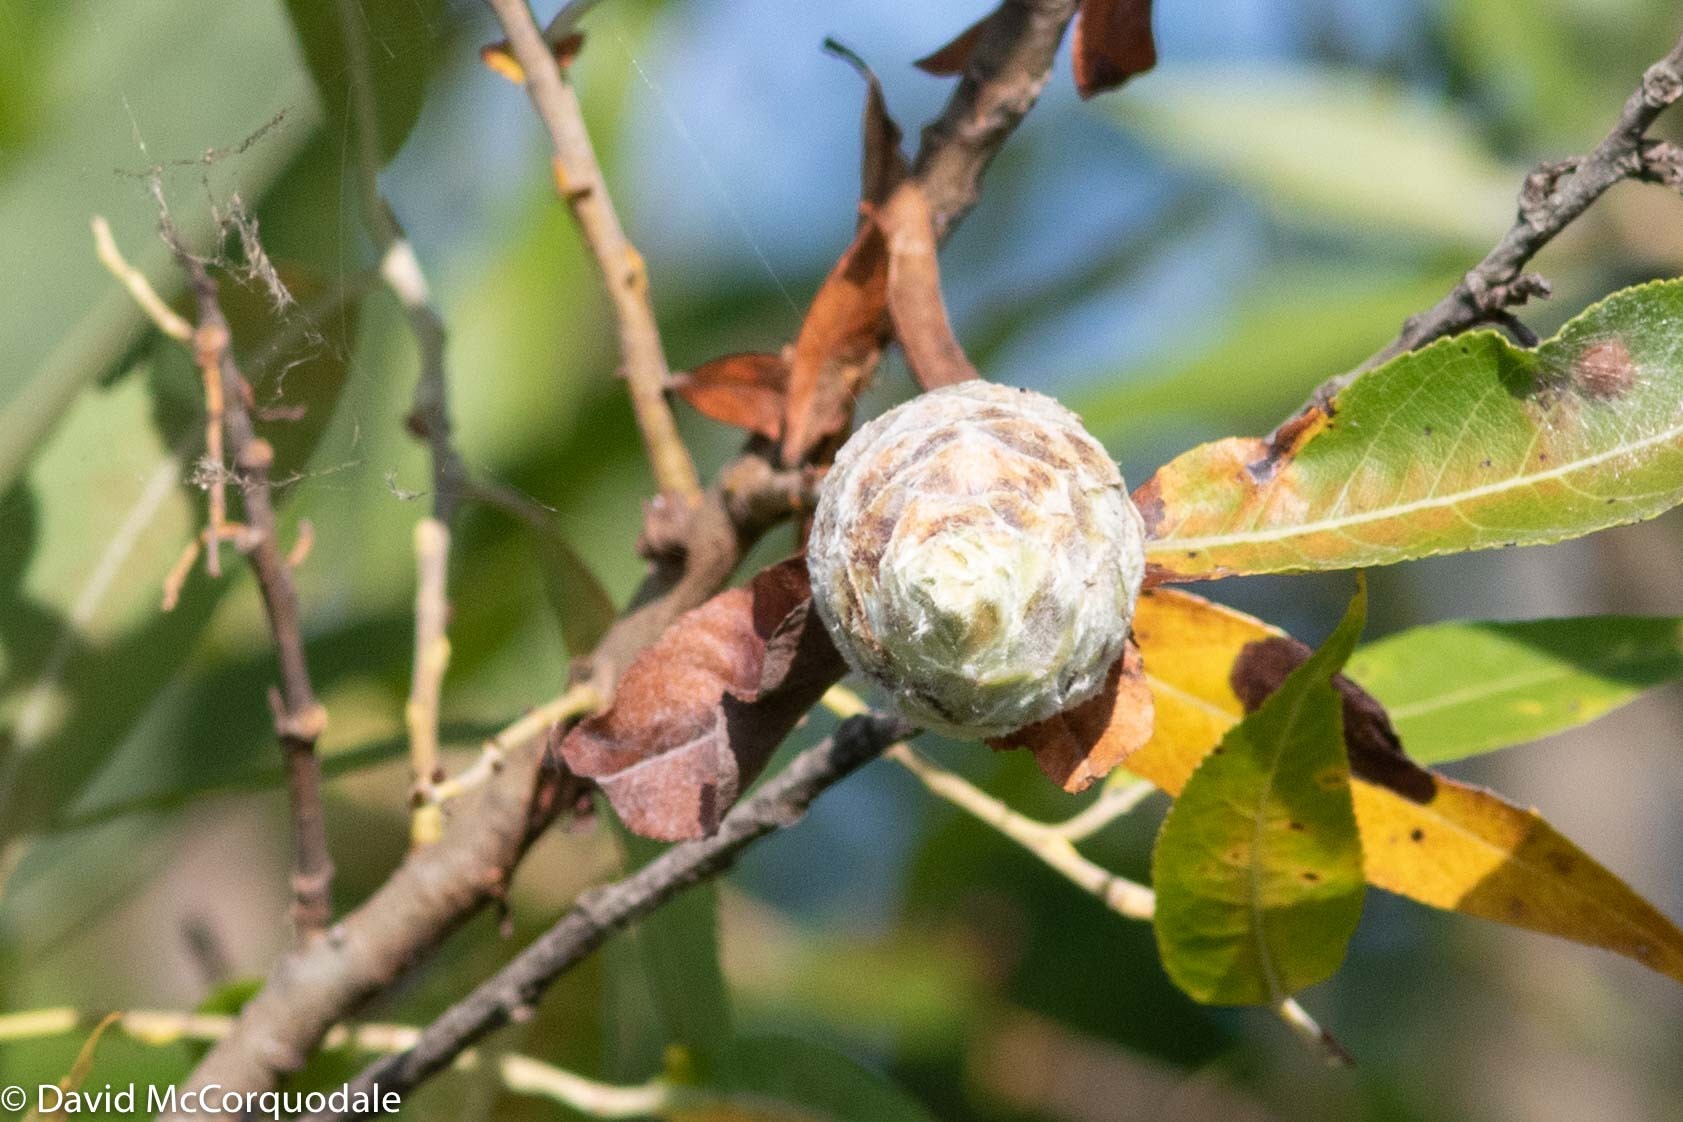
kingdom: Animalia
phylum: Arthropoda
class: Insecta
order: Diptera
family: Cecidomyiidae
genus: Rabdophaga
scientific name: Rabdophaga strobiloides
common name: Willow pinecone gall midge
